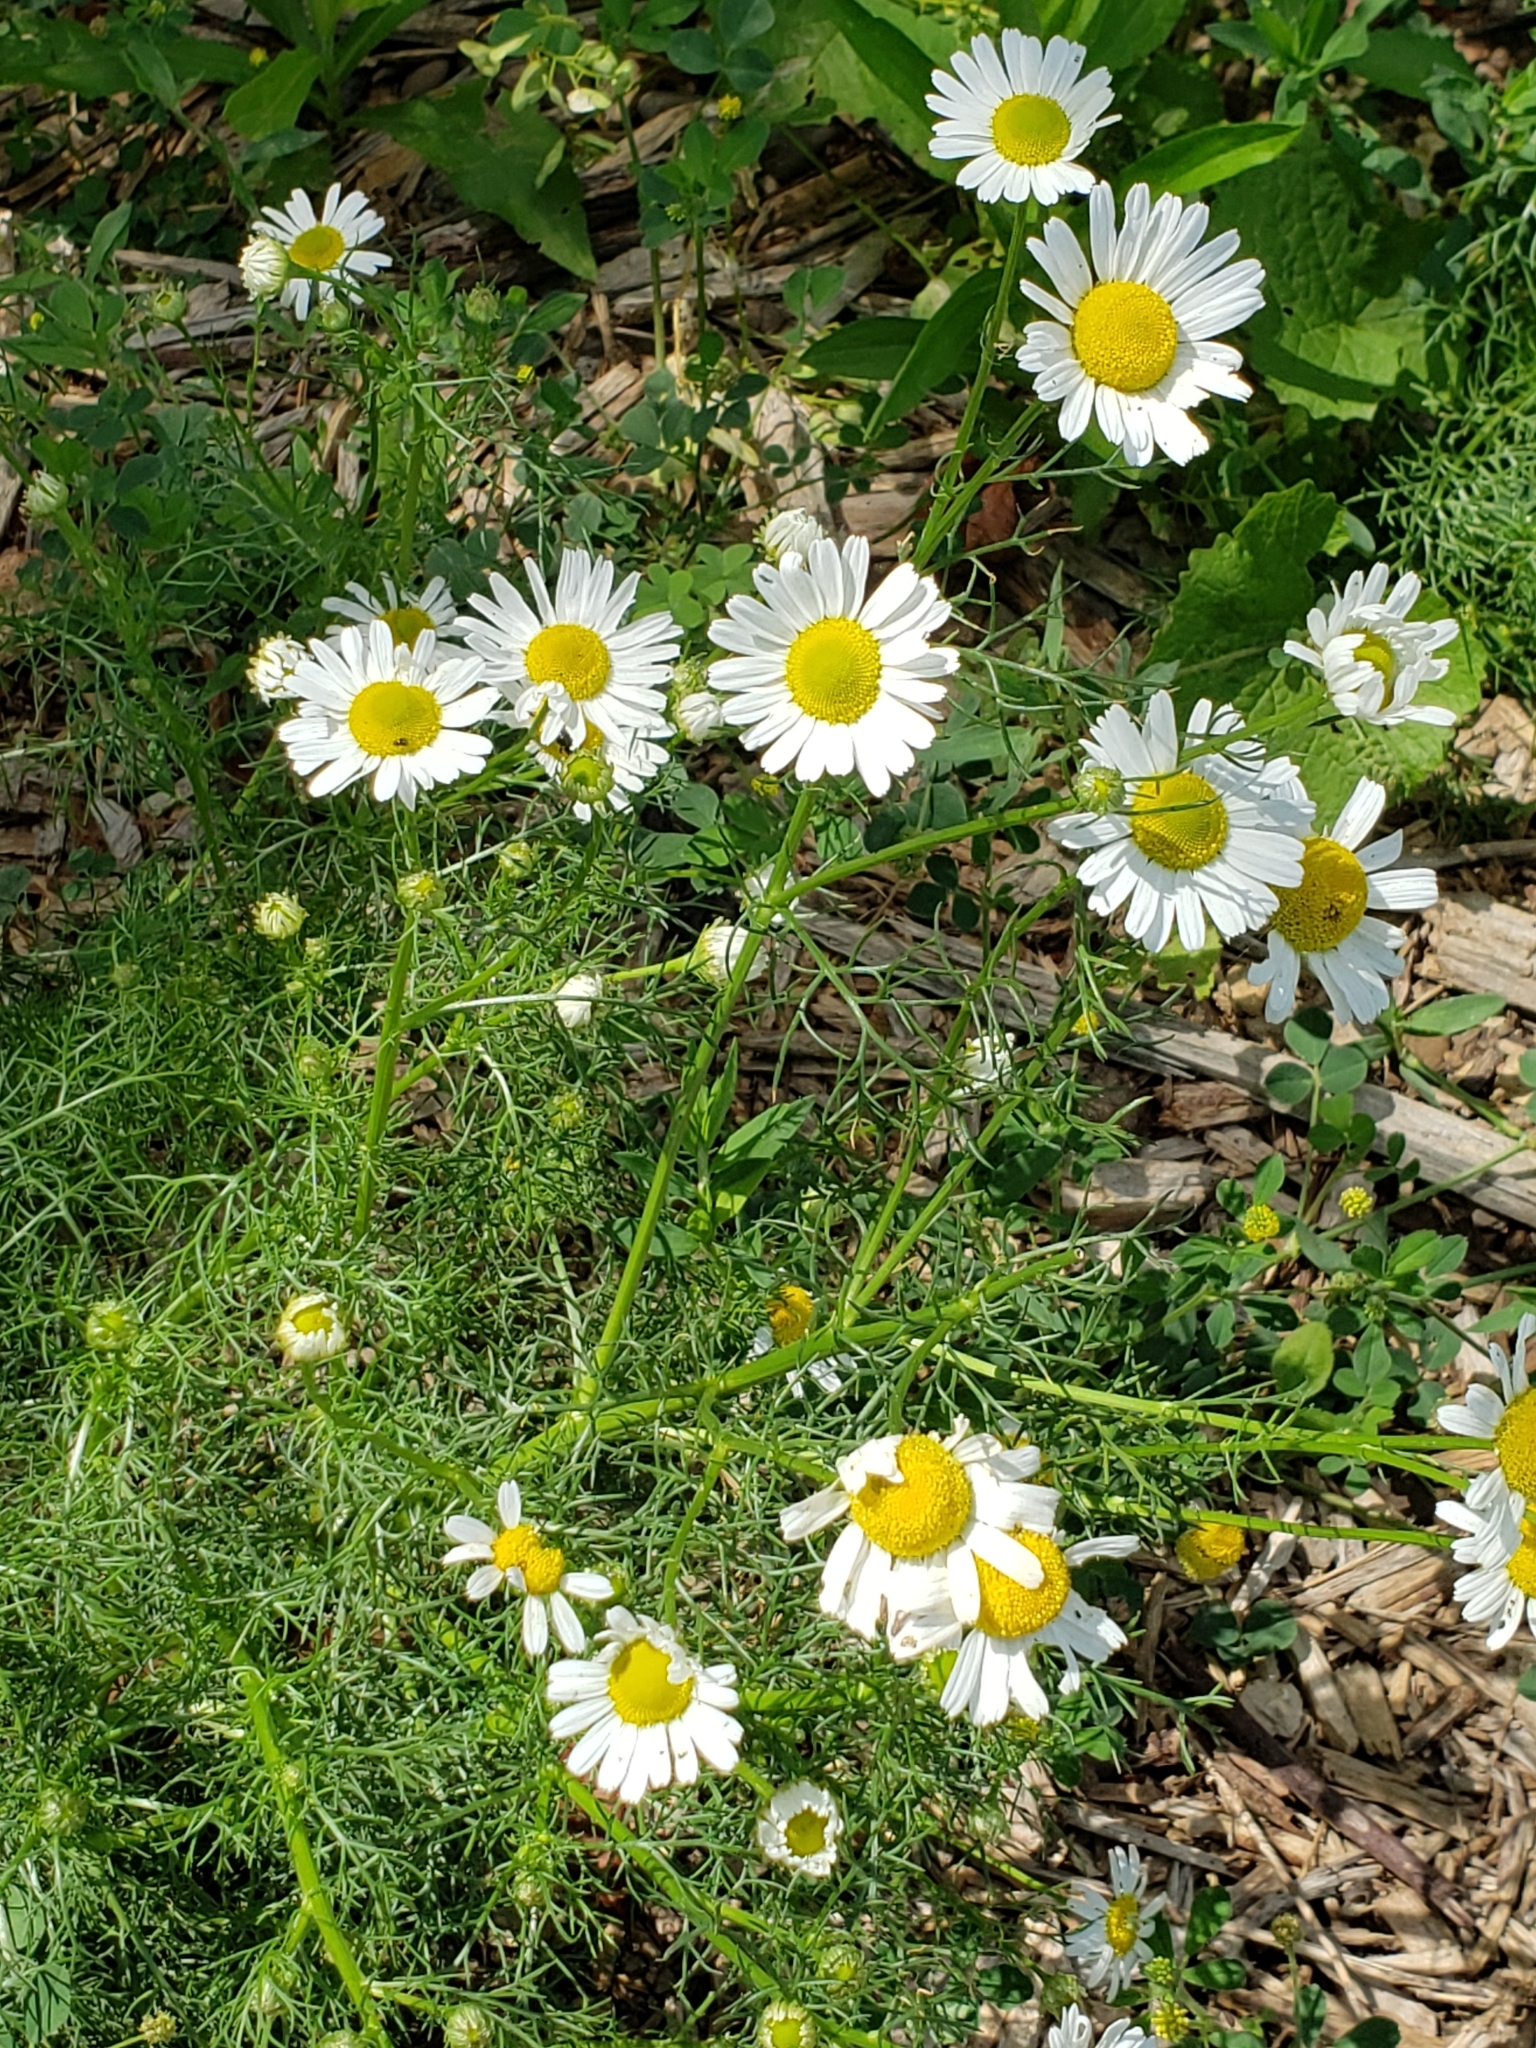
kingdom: Plantae
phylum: Tracheophyta
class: Magnoliopsida
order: Asterales
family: Asteraceae
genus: Tripleurospermum
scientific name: Tripleurospermum inodorum
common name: Scentless mayweed
